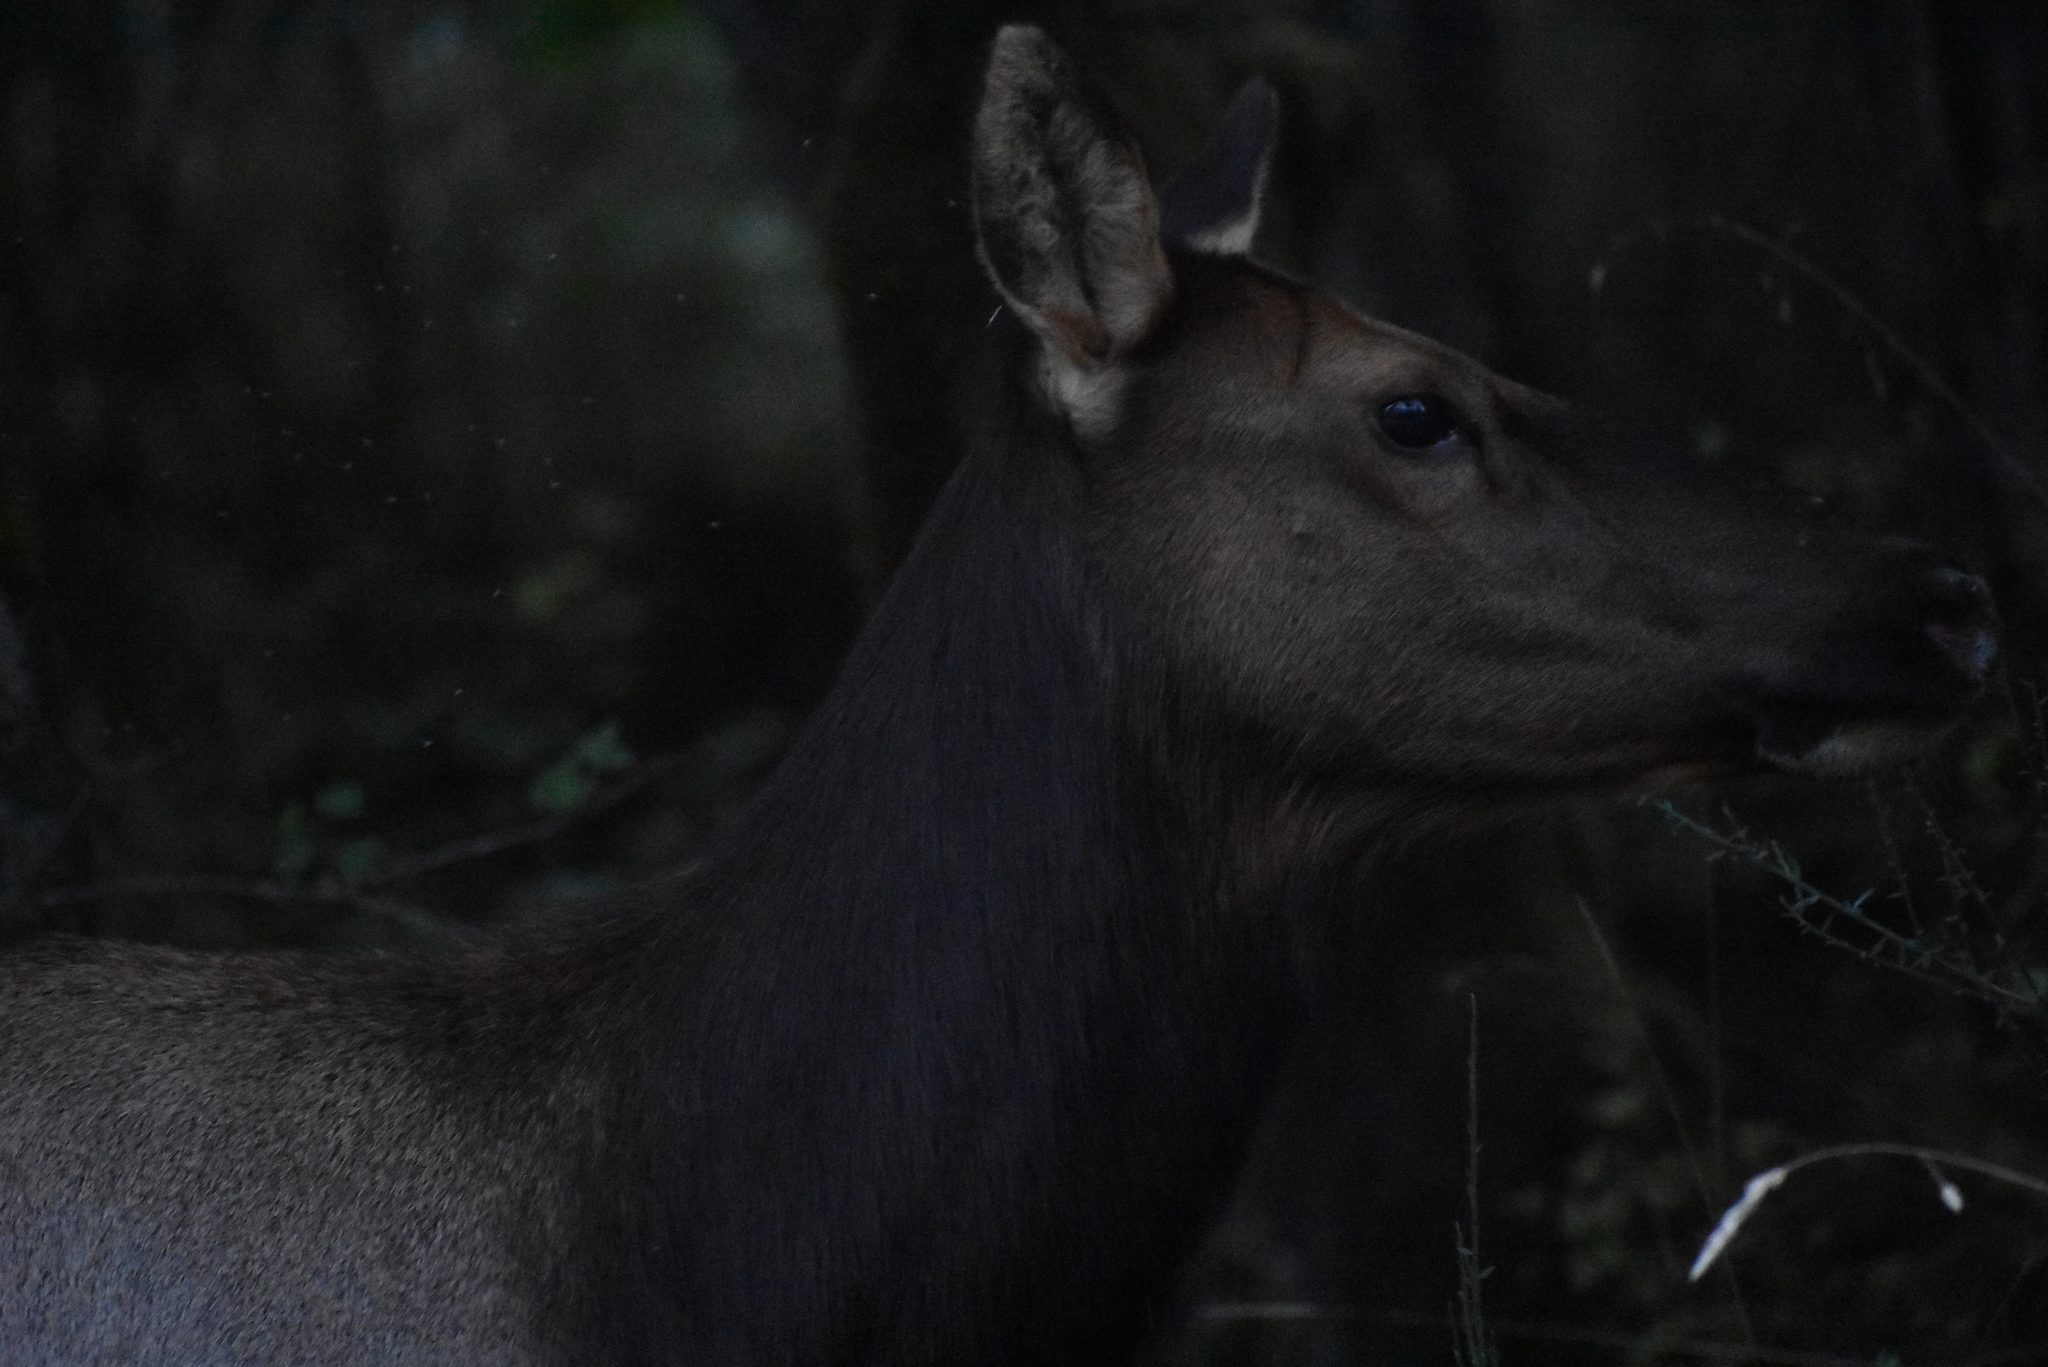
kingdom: Animalia
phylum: Chordata
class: Mammalia
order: Artiodactyla
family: Cervidae
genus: Cervus
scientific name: Cervus elaphus
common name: Red deer
